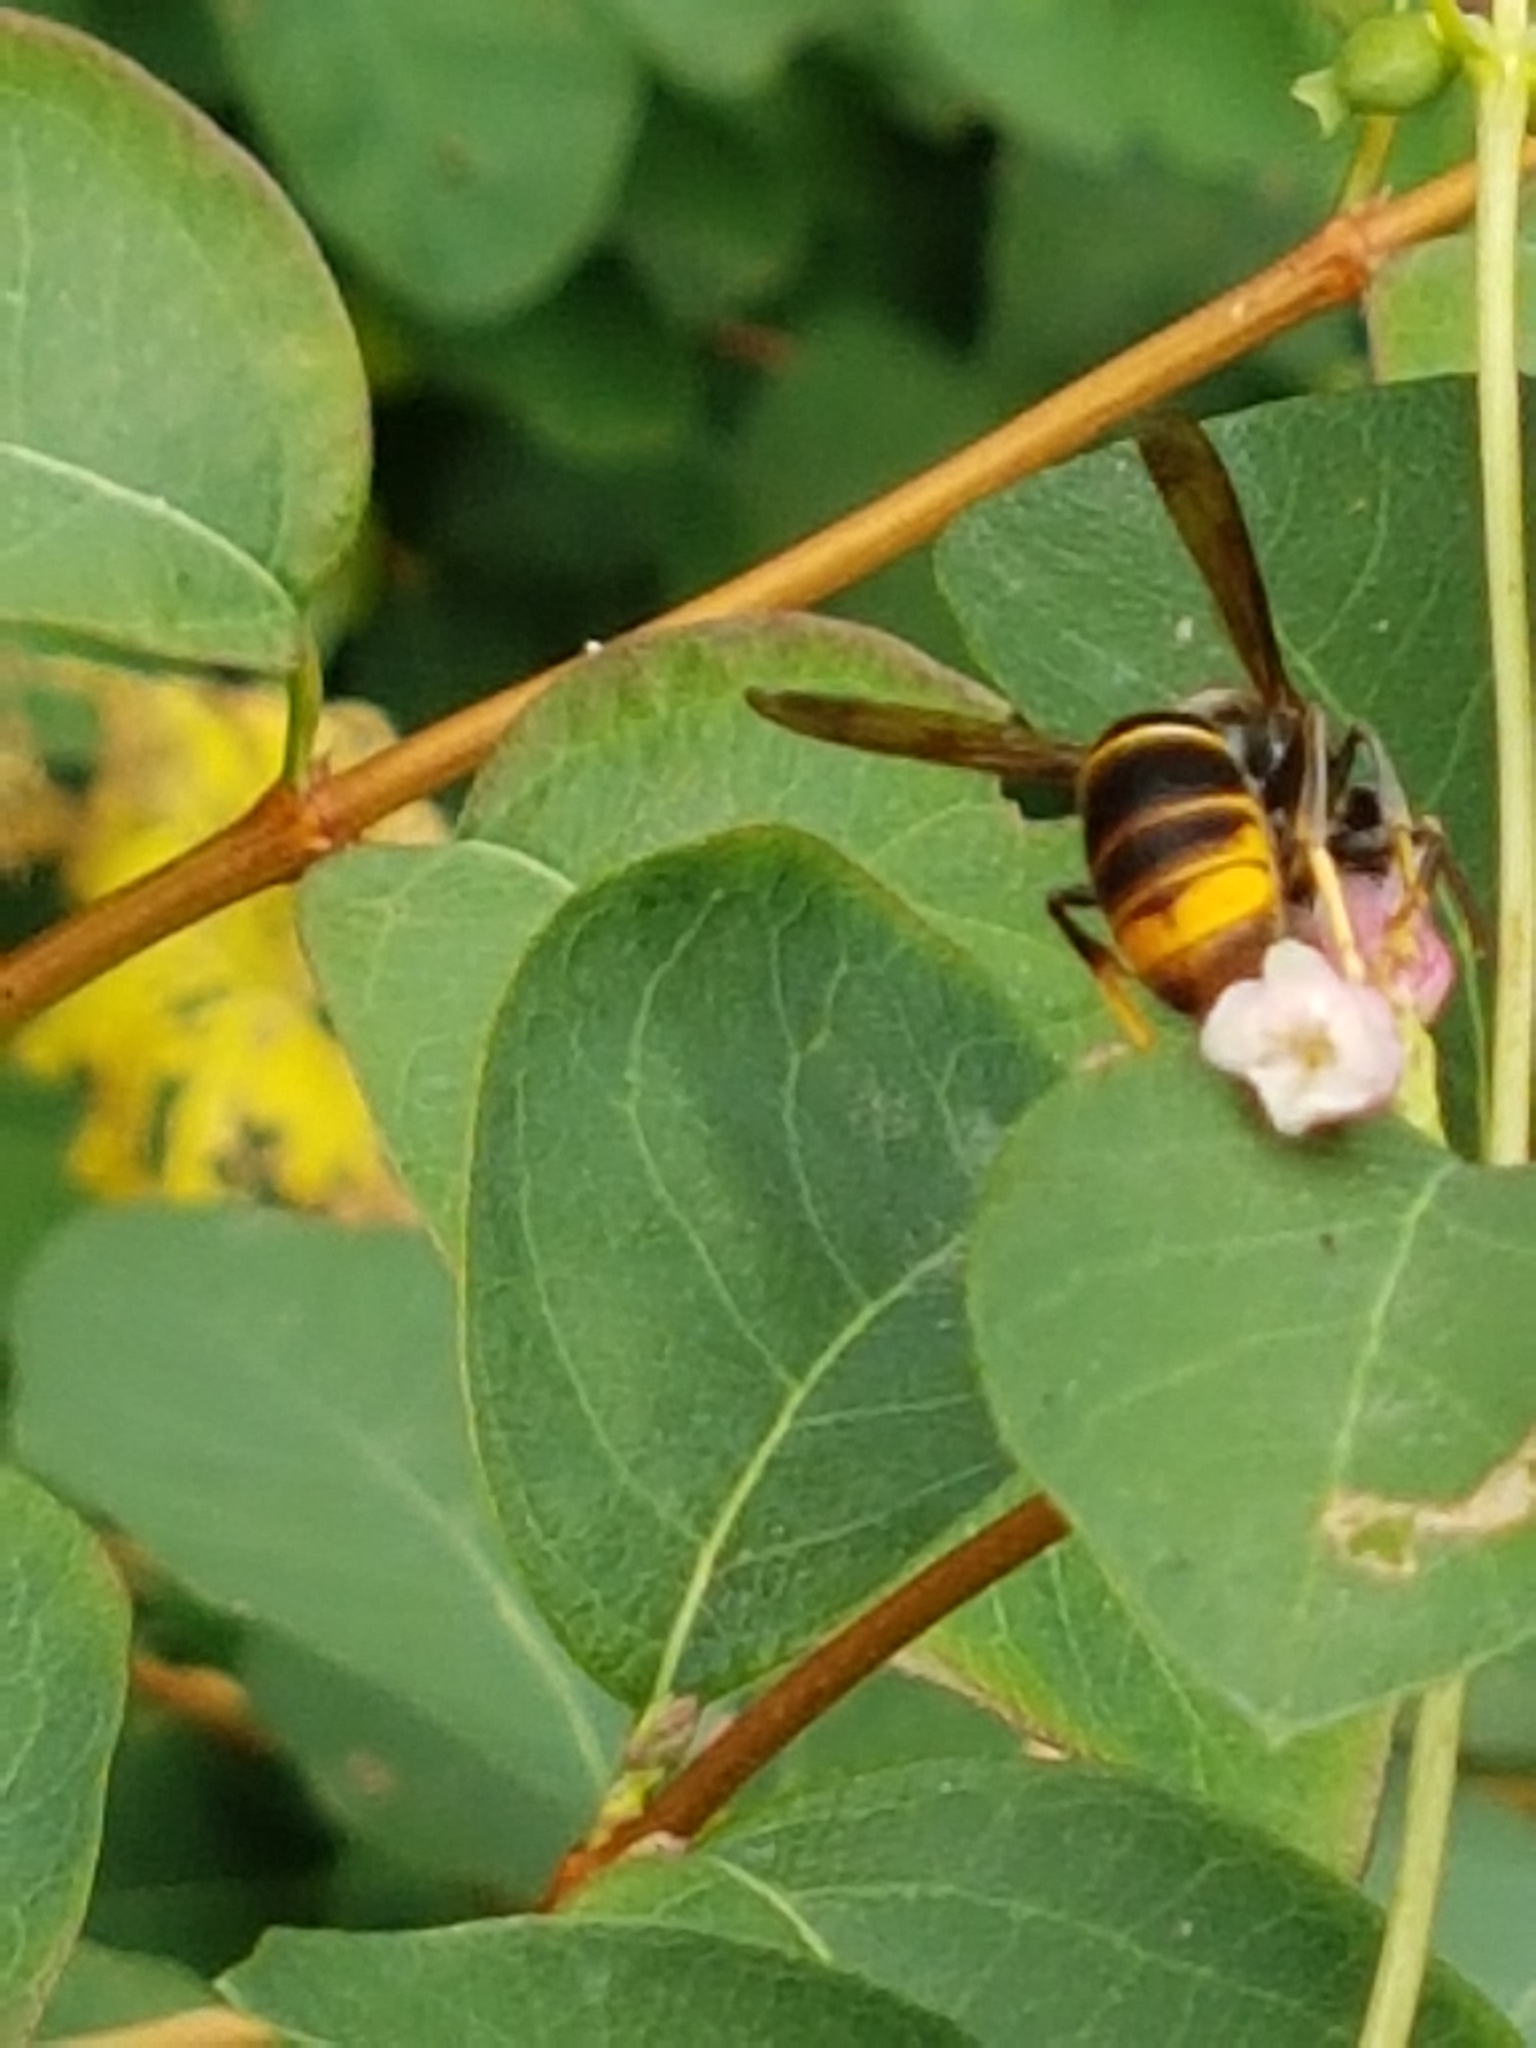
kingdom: Animalia
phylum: Arthropoda
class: Insecta
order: Hymenoptera
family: Vespidae
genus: Vespa
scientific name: Vespa velutina
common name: Asian hornet
